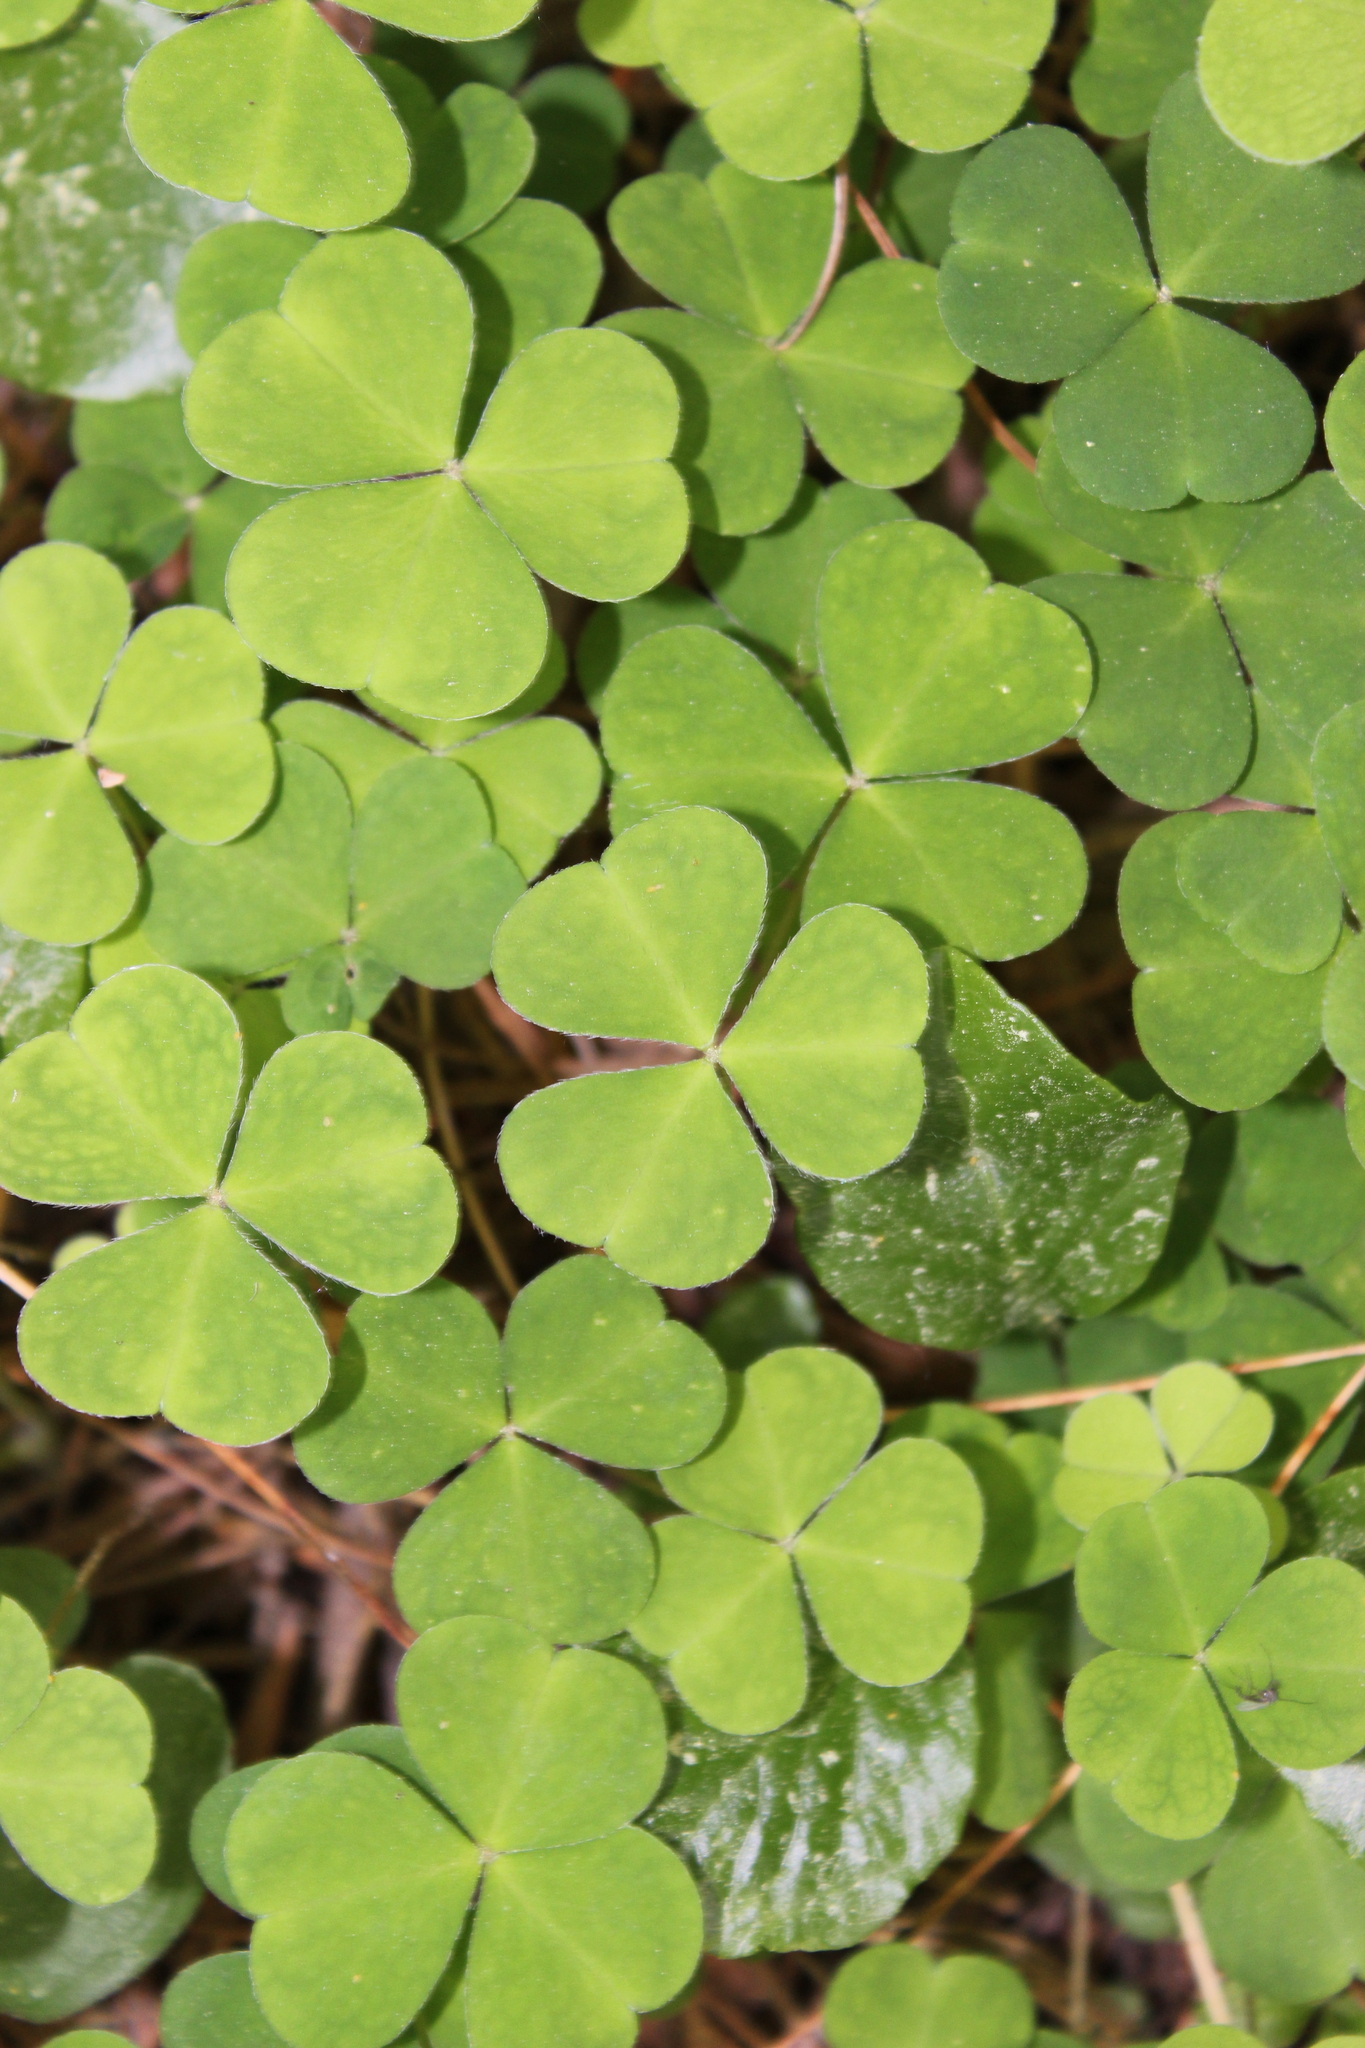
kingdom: Plantae
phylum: Tracheophyta
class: Magnoliopsida
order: Oxalidales
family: Oxalidaceae
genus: Oxalis
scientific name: Oxalis acetosella
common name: Wood-sorrel
